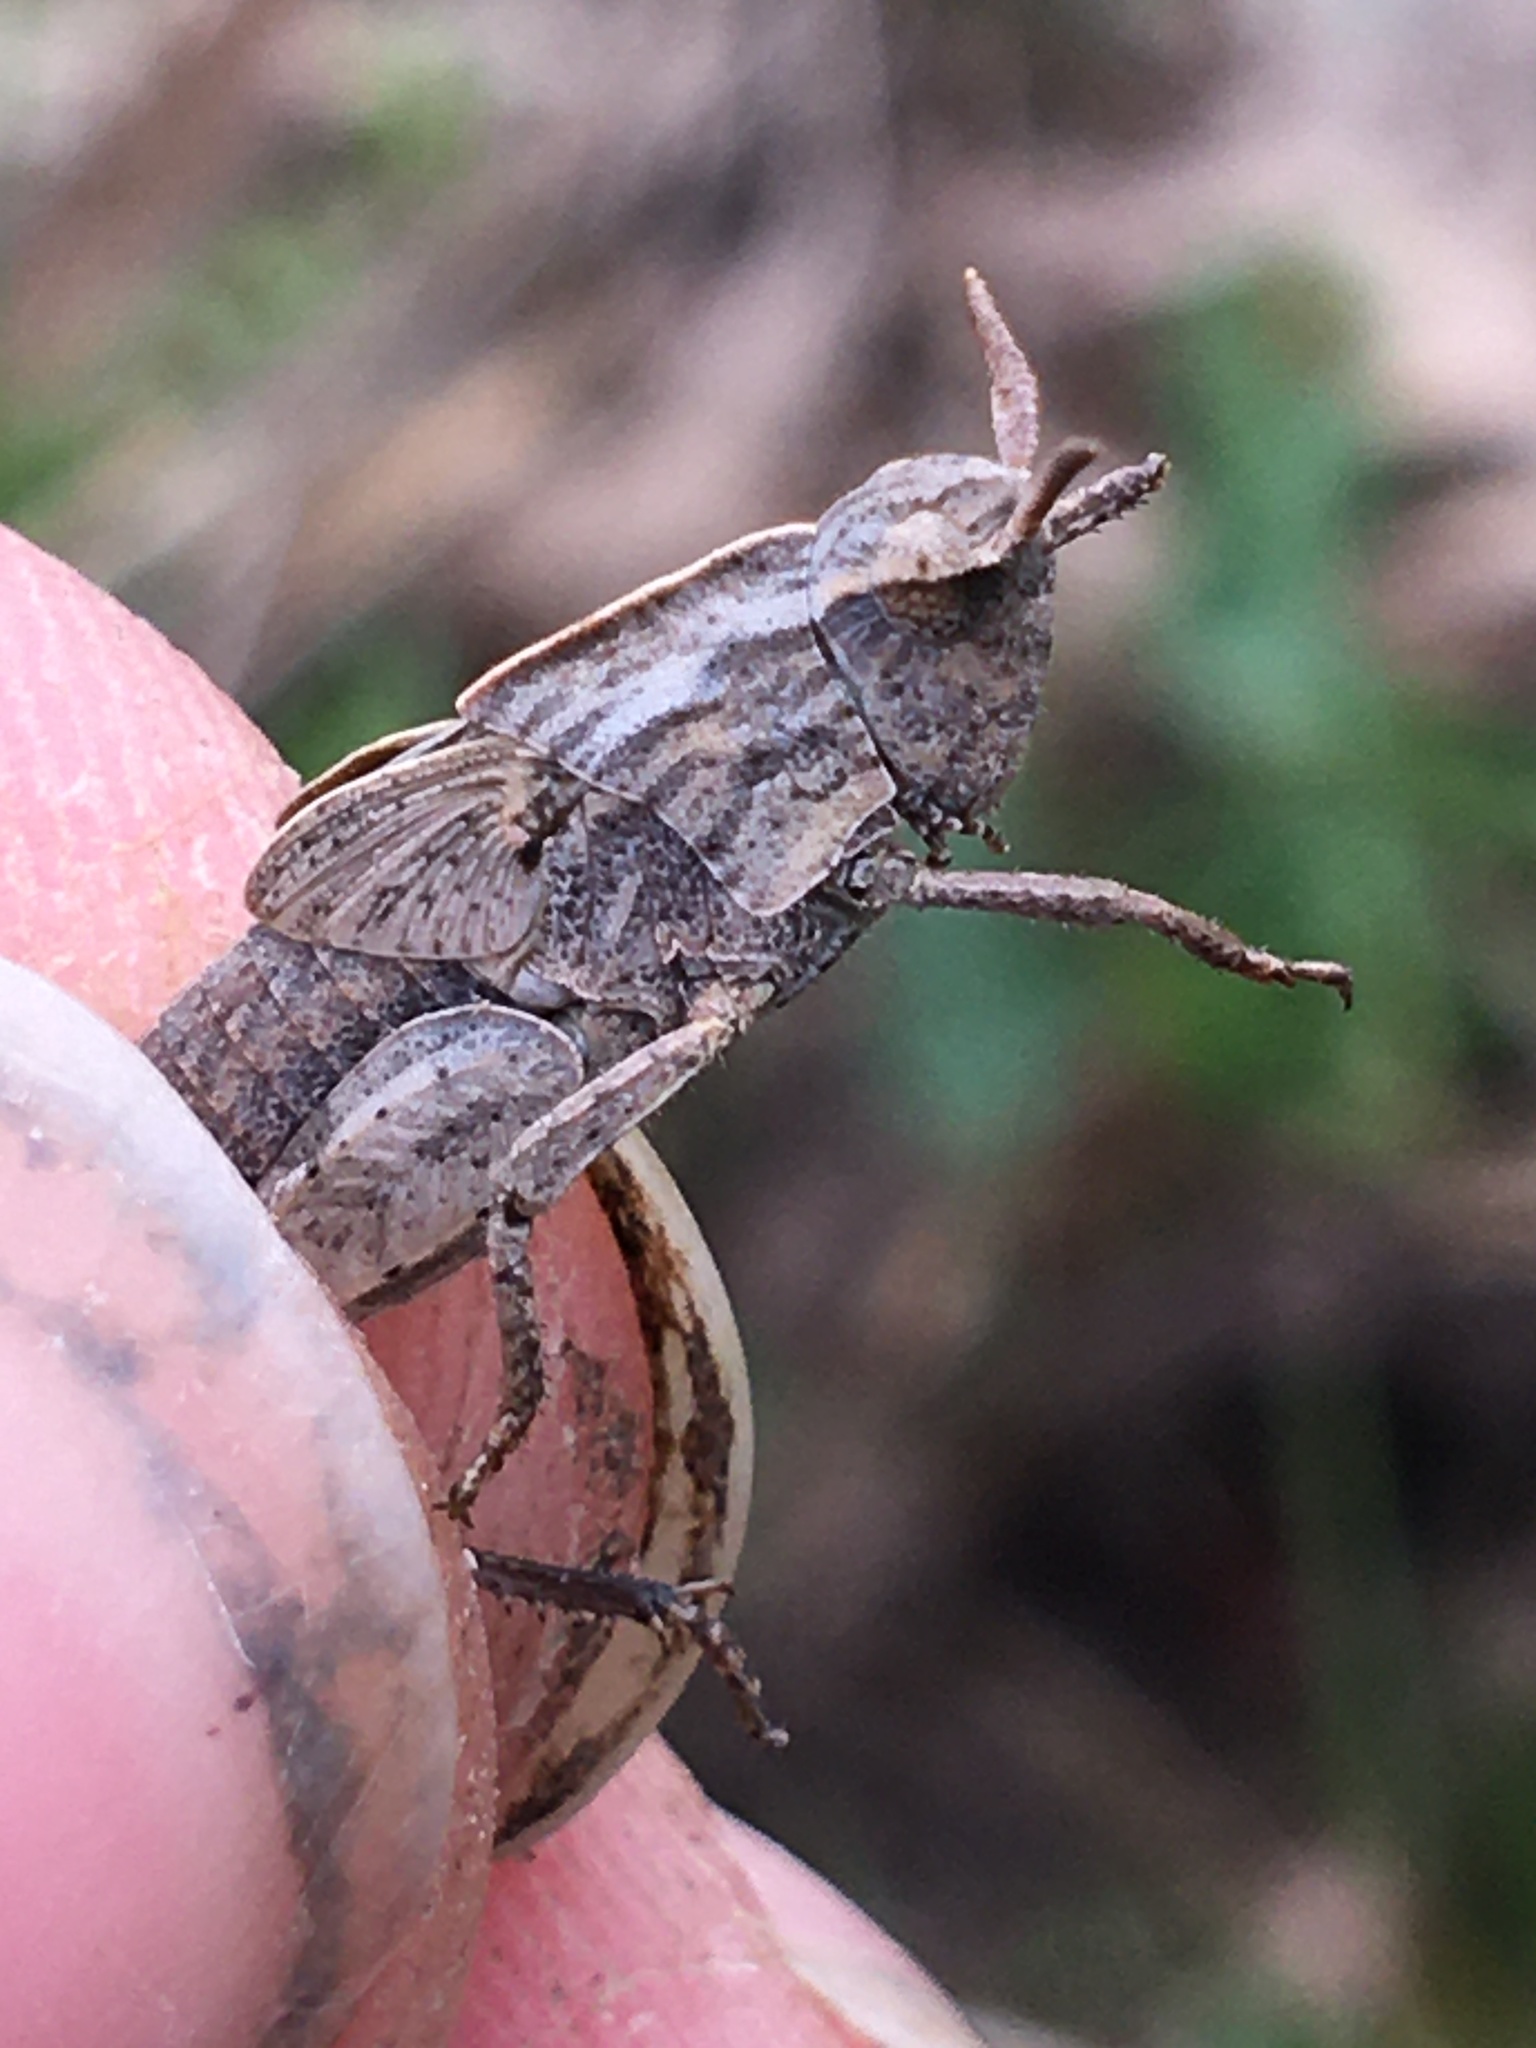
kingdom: Animalia
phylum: Arthropoda
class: Insecta
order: Orthoptera
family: Acrididae
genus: Chortophaga
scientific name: Chortophaga viridifasciata
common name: Green-striped grasshopper
